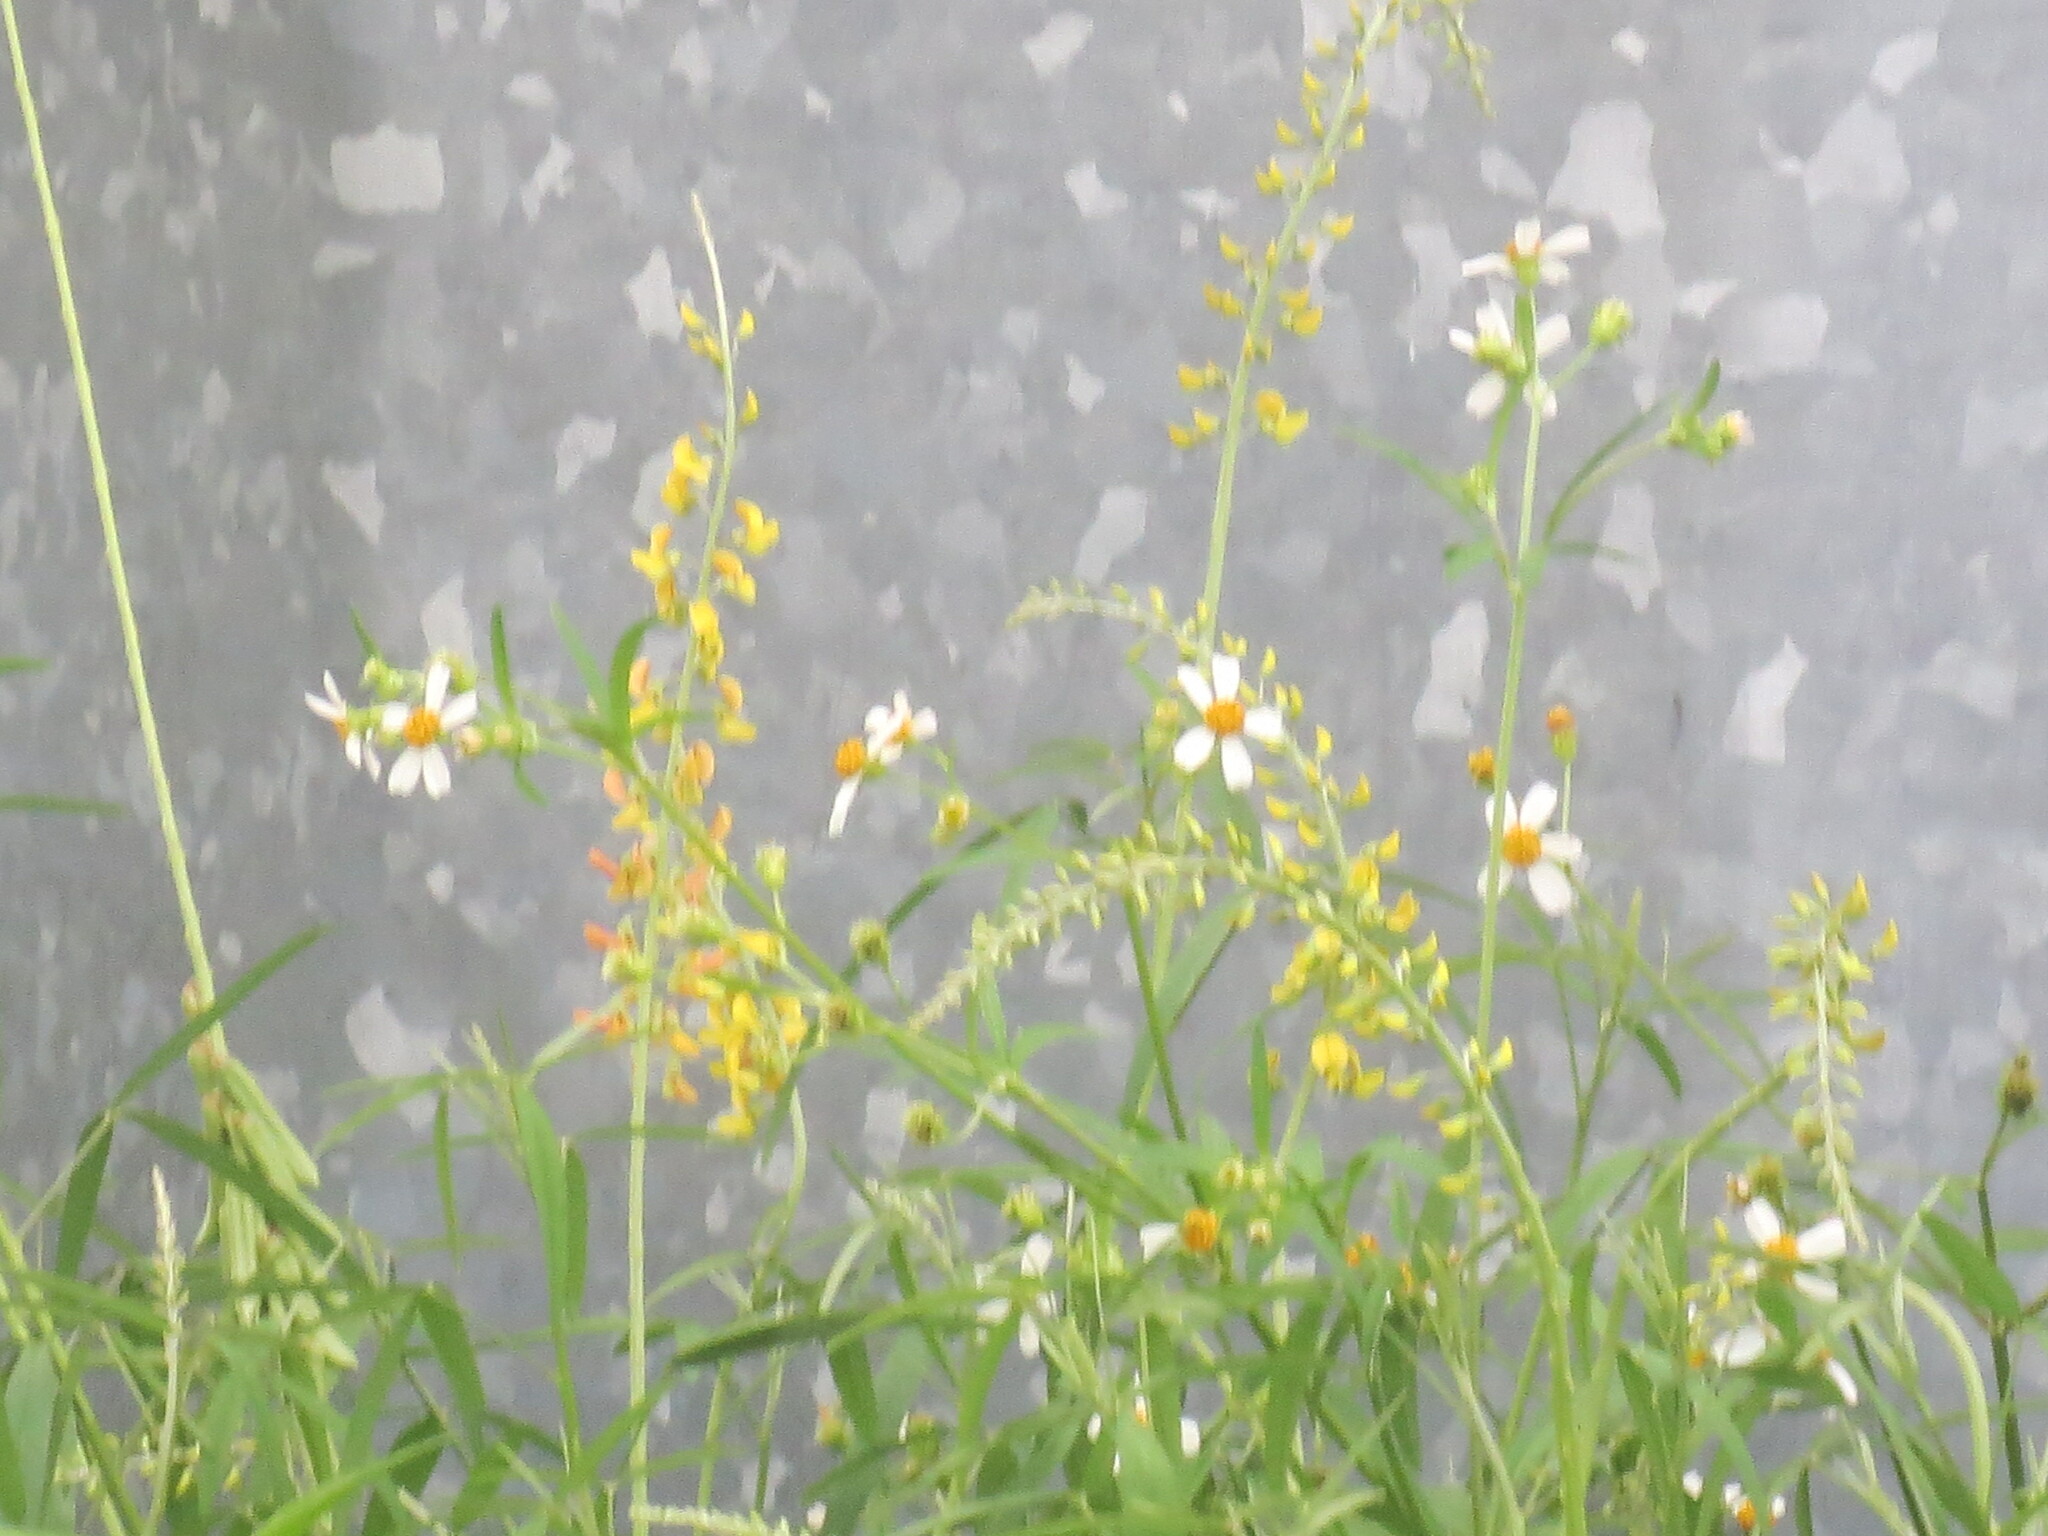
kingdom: Plantae
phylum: Tracheophyta
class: Magnoliopsida
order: Asterales
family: Asteraceae
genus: Bidens
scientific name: Bidens alba
